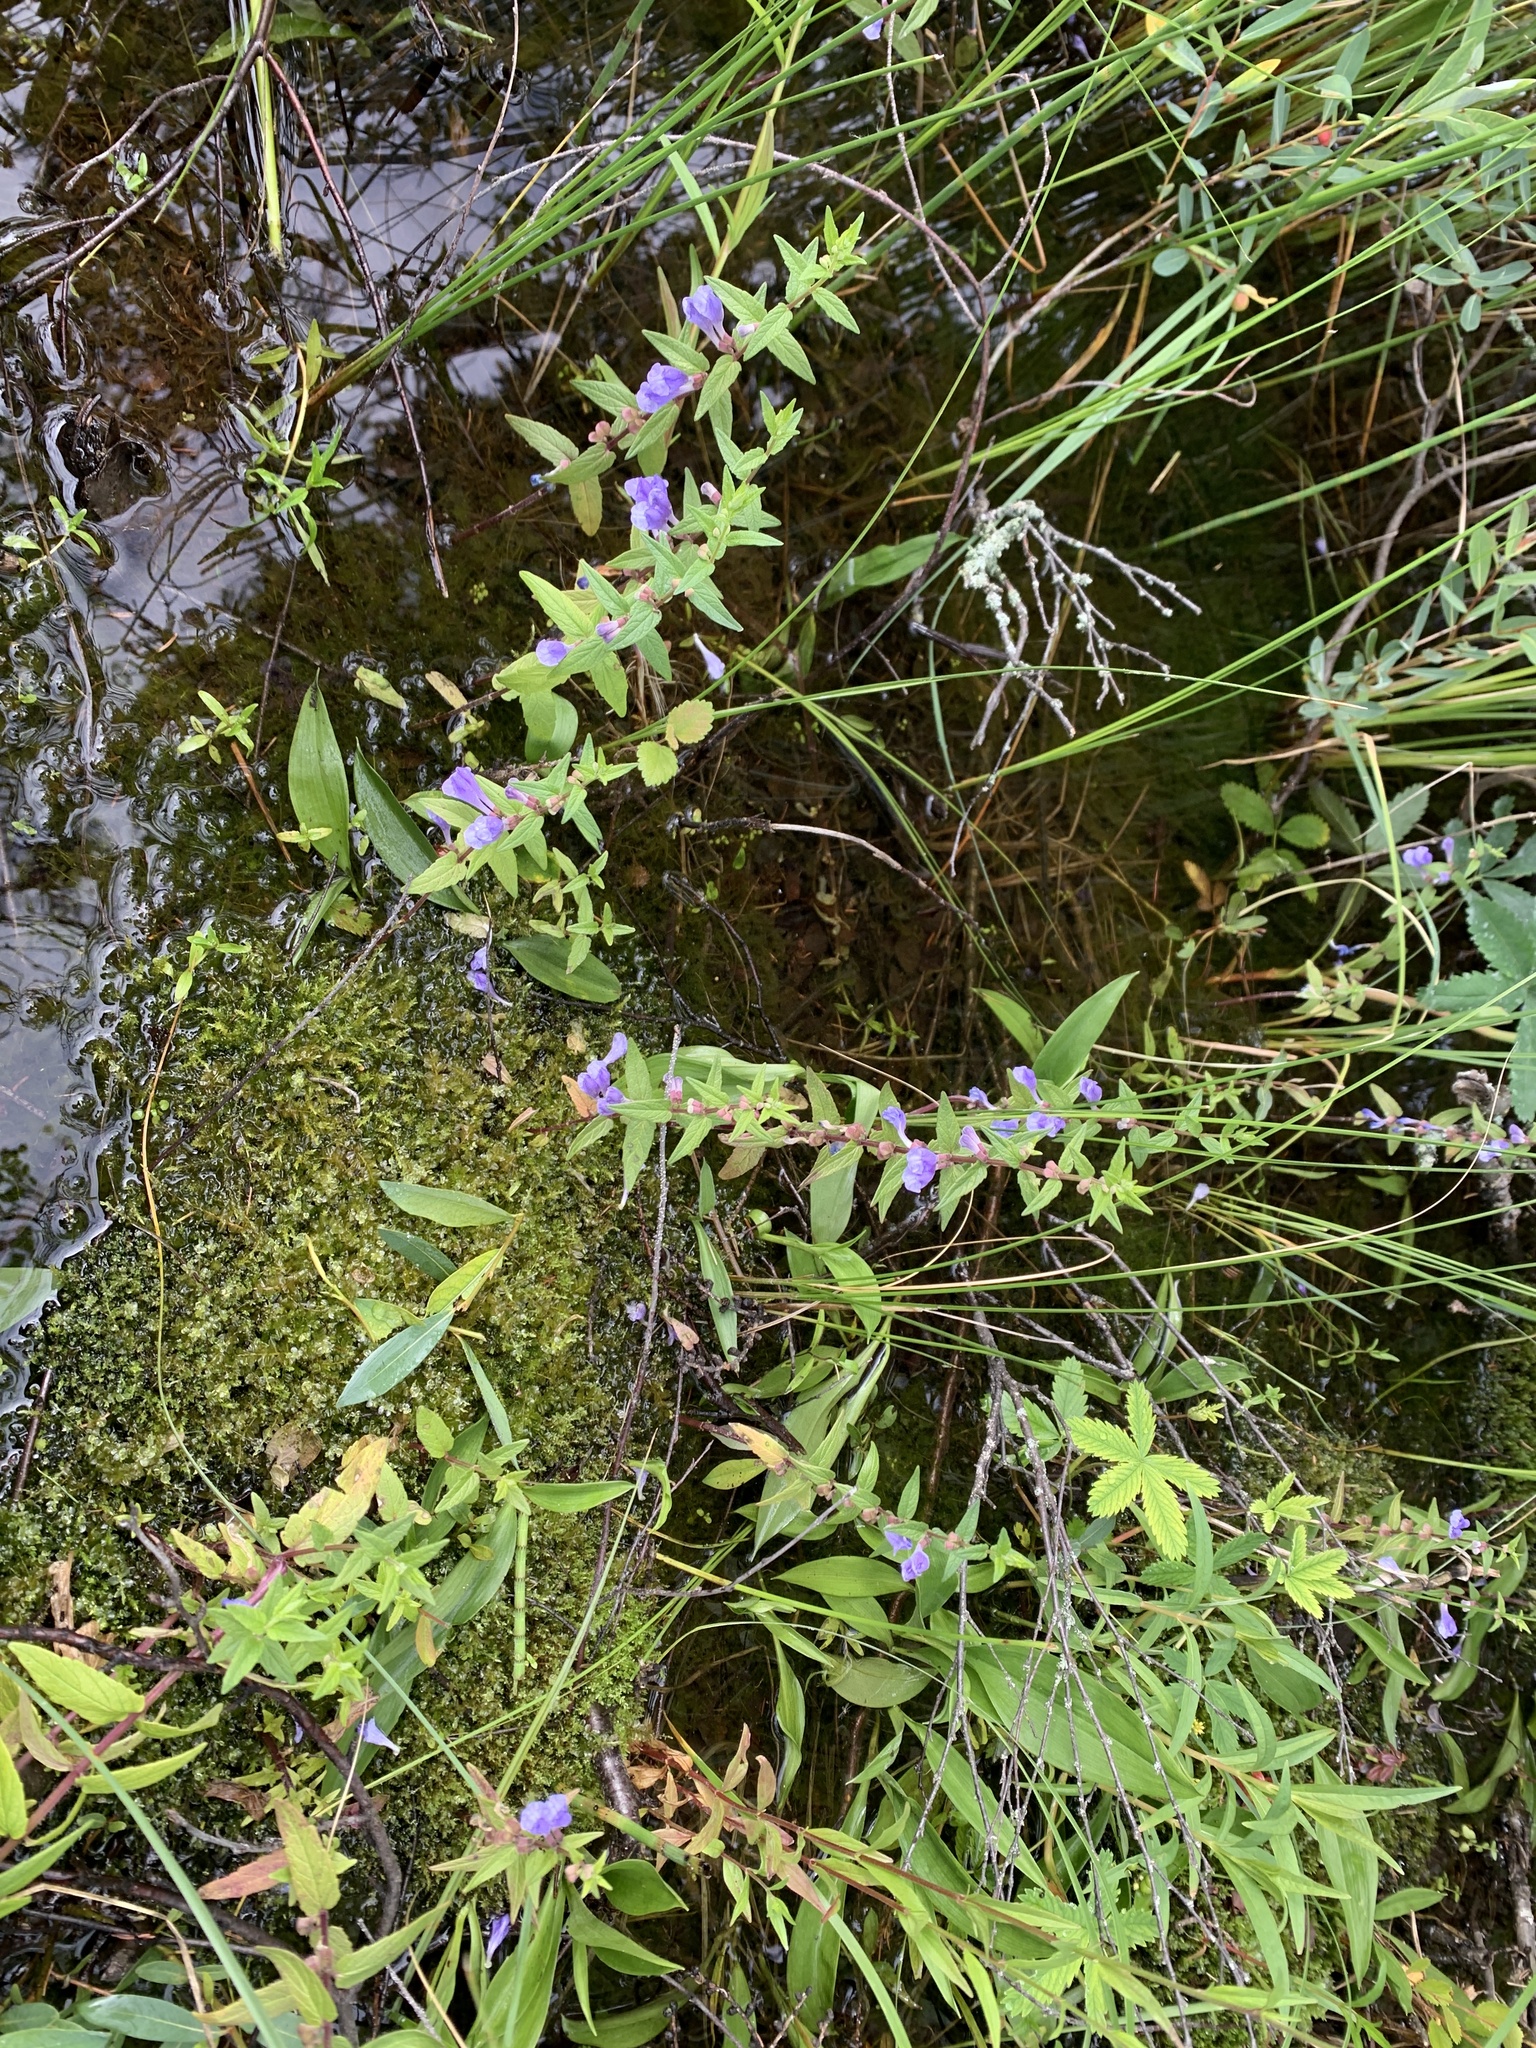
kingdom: Plantae
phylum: Tracheophyta
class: Magnoliopsida
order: Lamiales
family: Lamiaceae
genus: Scutellaria
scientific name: Scutellaria galericulata
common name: Skullcap
